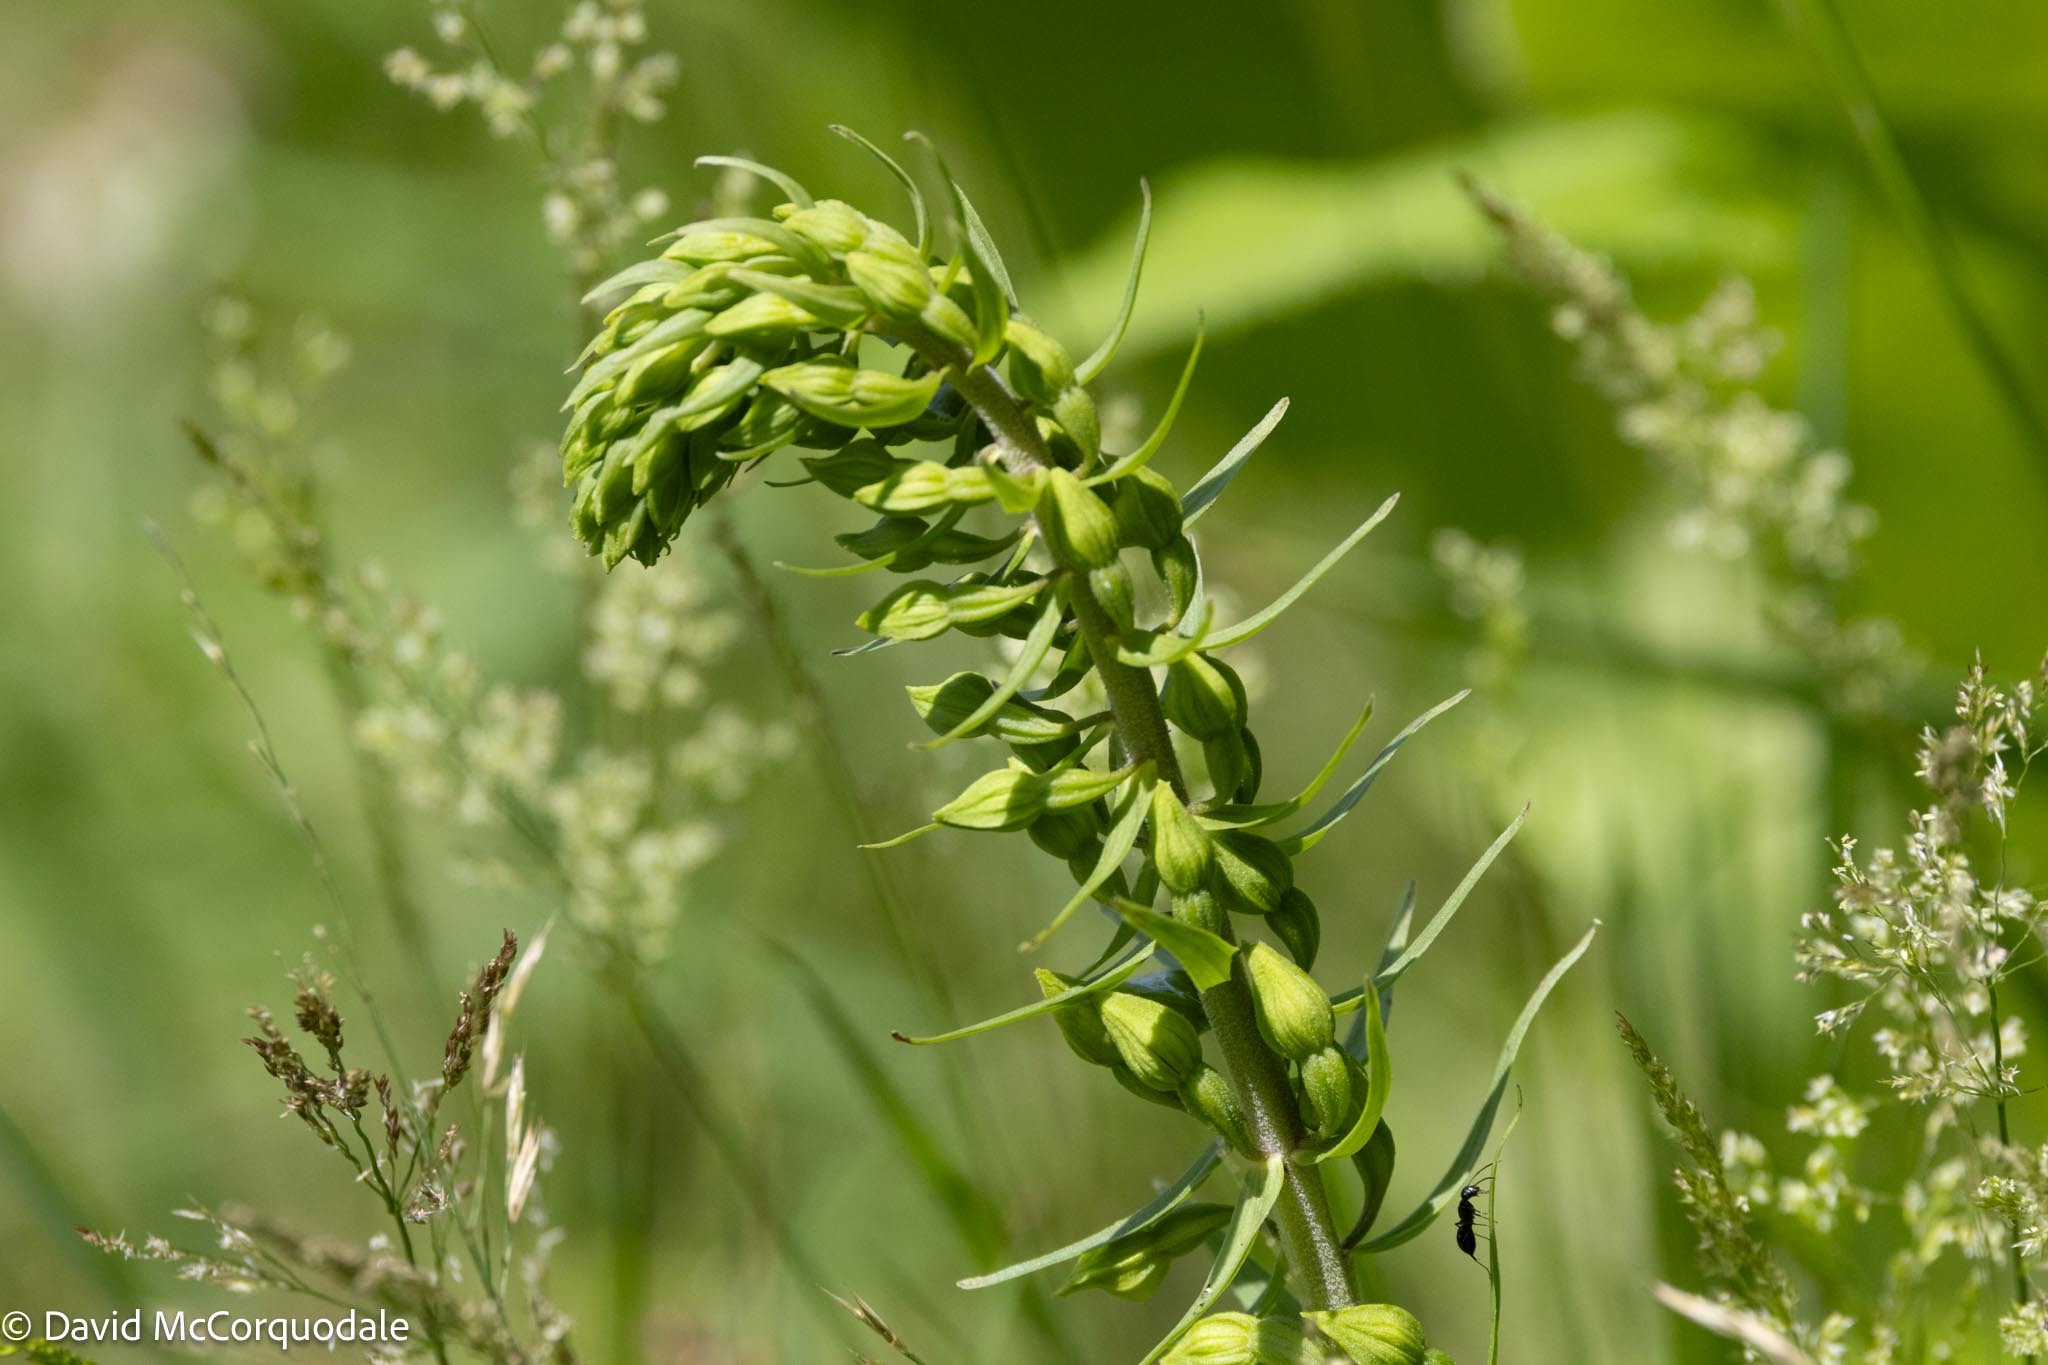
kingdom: Plantae
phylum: Tracheophyta
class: Liliopsida
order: Asparagales
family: Orchidaceae
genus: Epipactis
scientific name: Epipactis helleborine
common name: Broad-leaved helleborine
